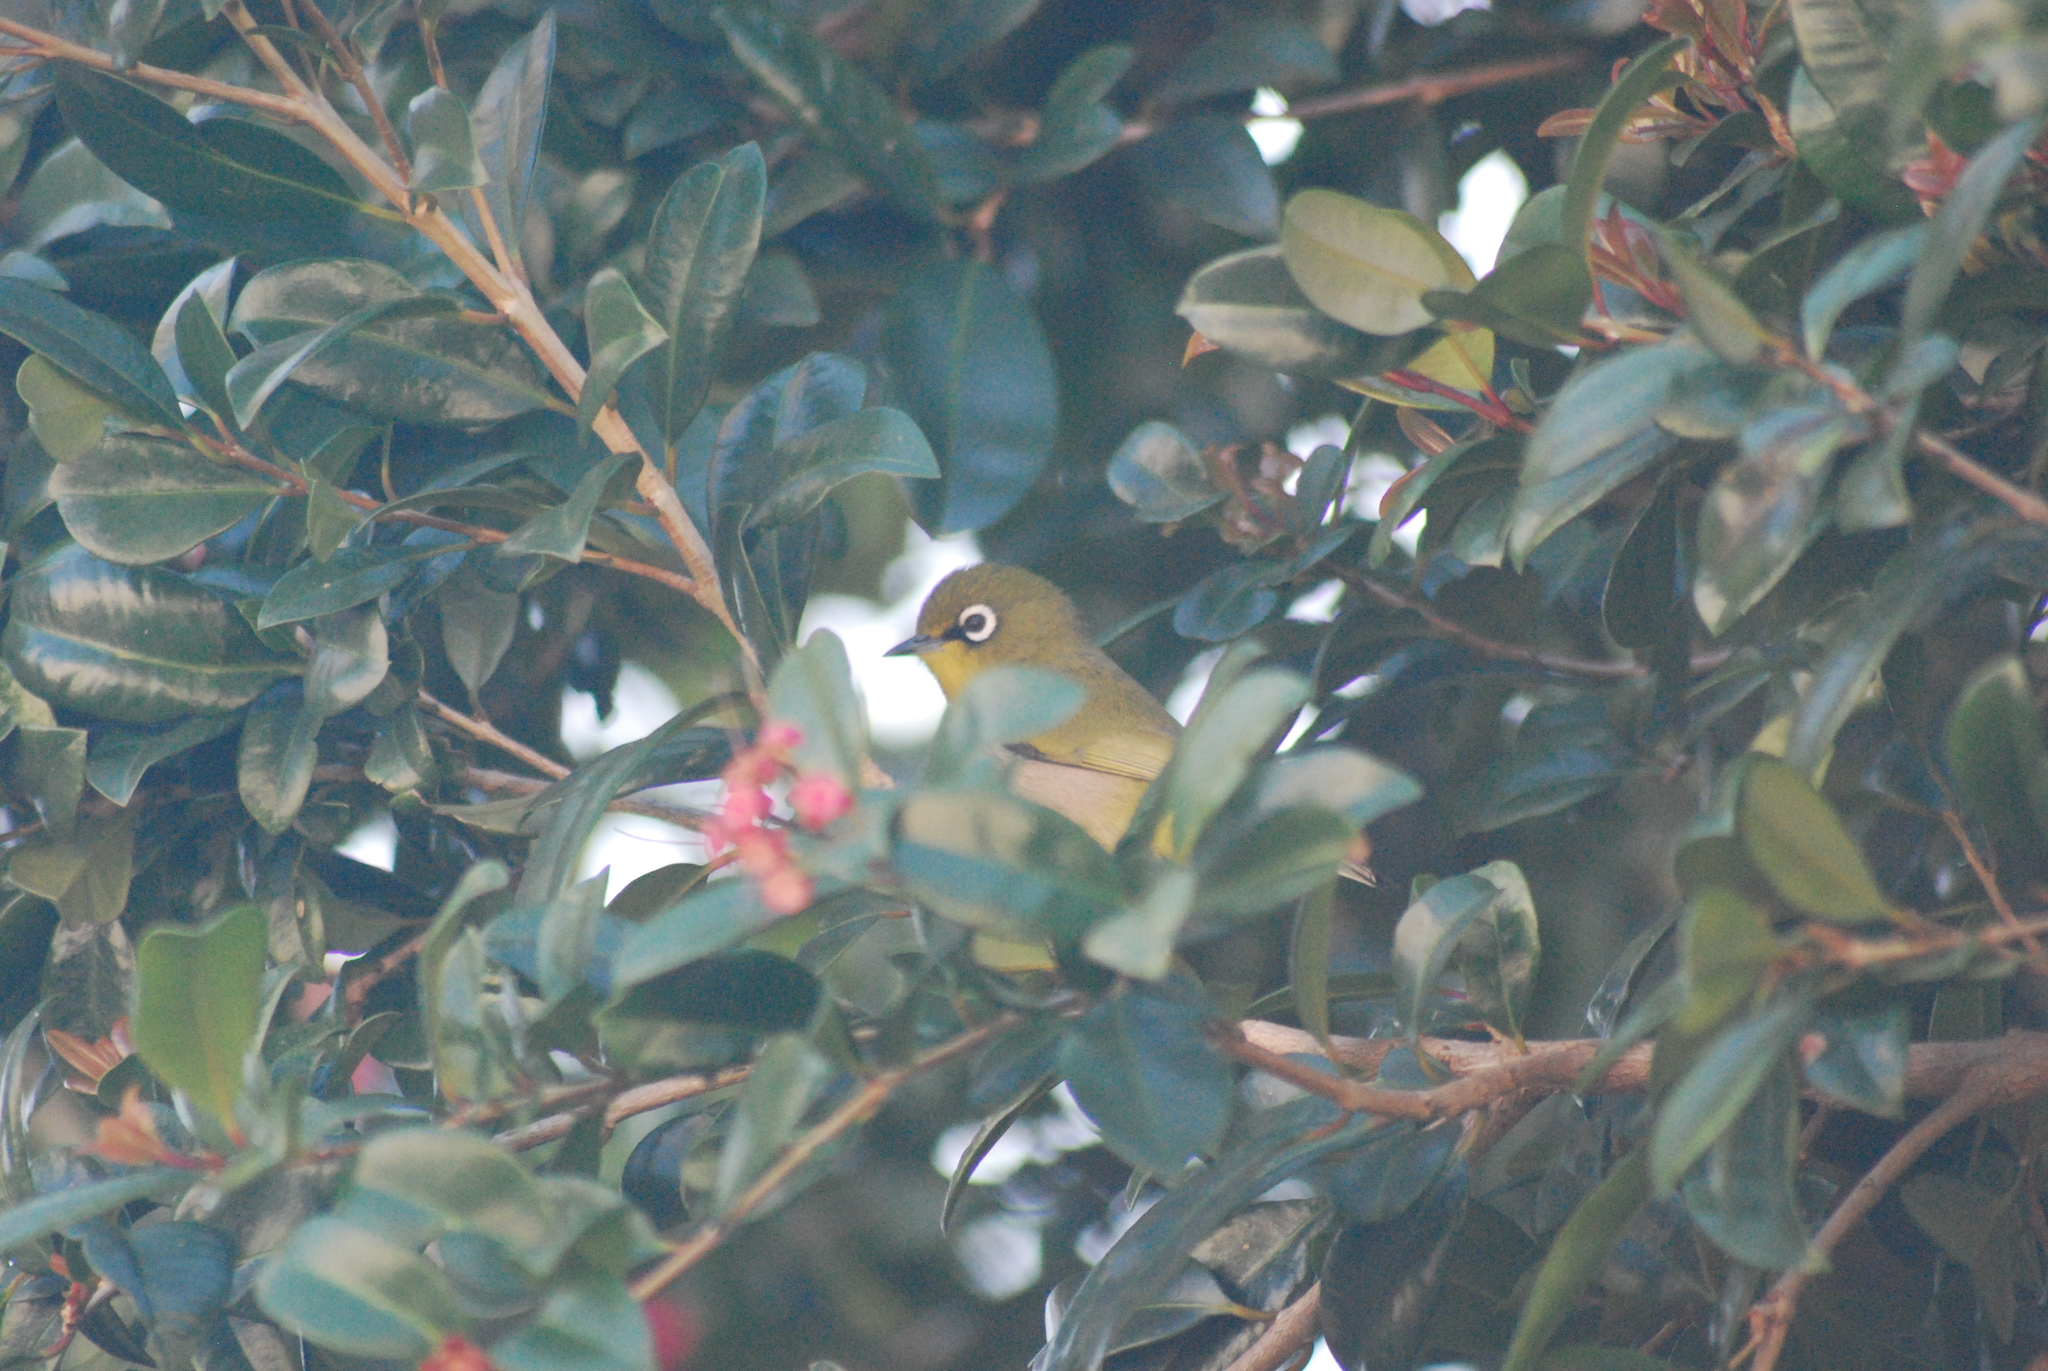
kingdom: Animalia
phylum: Chordata
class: Aves
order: Passeriformes
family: Zosteropidae
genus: Zosterops
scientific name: Zosterops virens
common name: Cape white-eye
